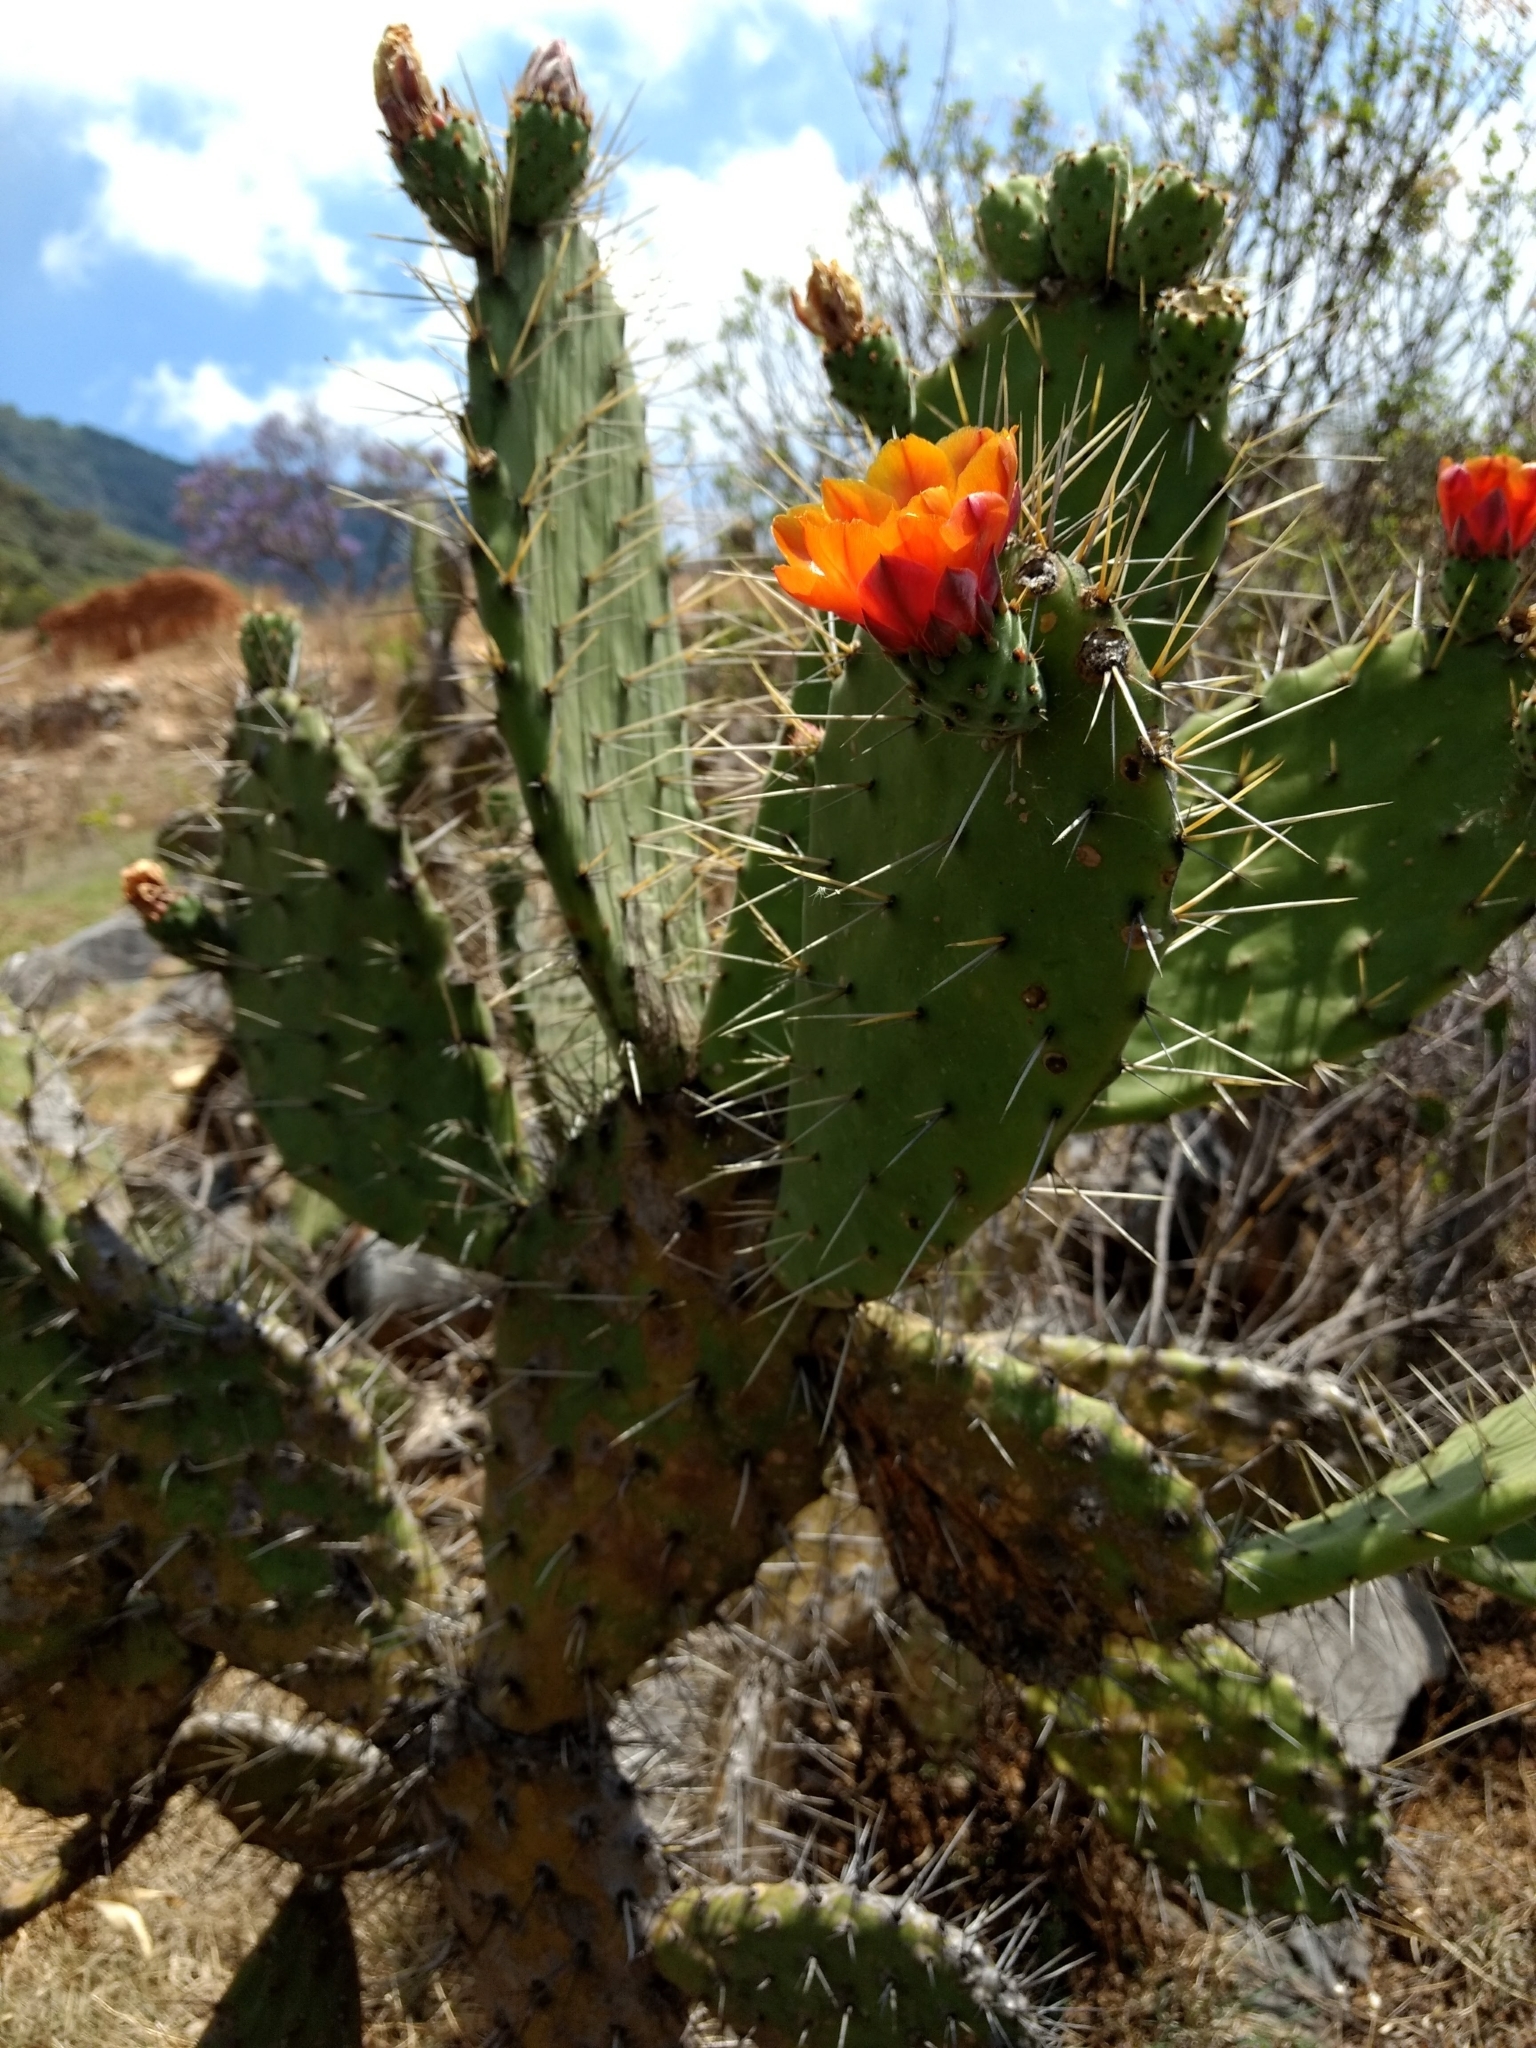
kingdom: Plantae
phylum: Tracheophyta
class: Magnoliopsida
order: Caryophyllales
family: Cactaceae
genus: Opuntia
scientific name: Opuntia tomentosa
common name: Woollyjoint pricklypear
